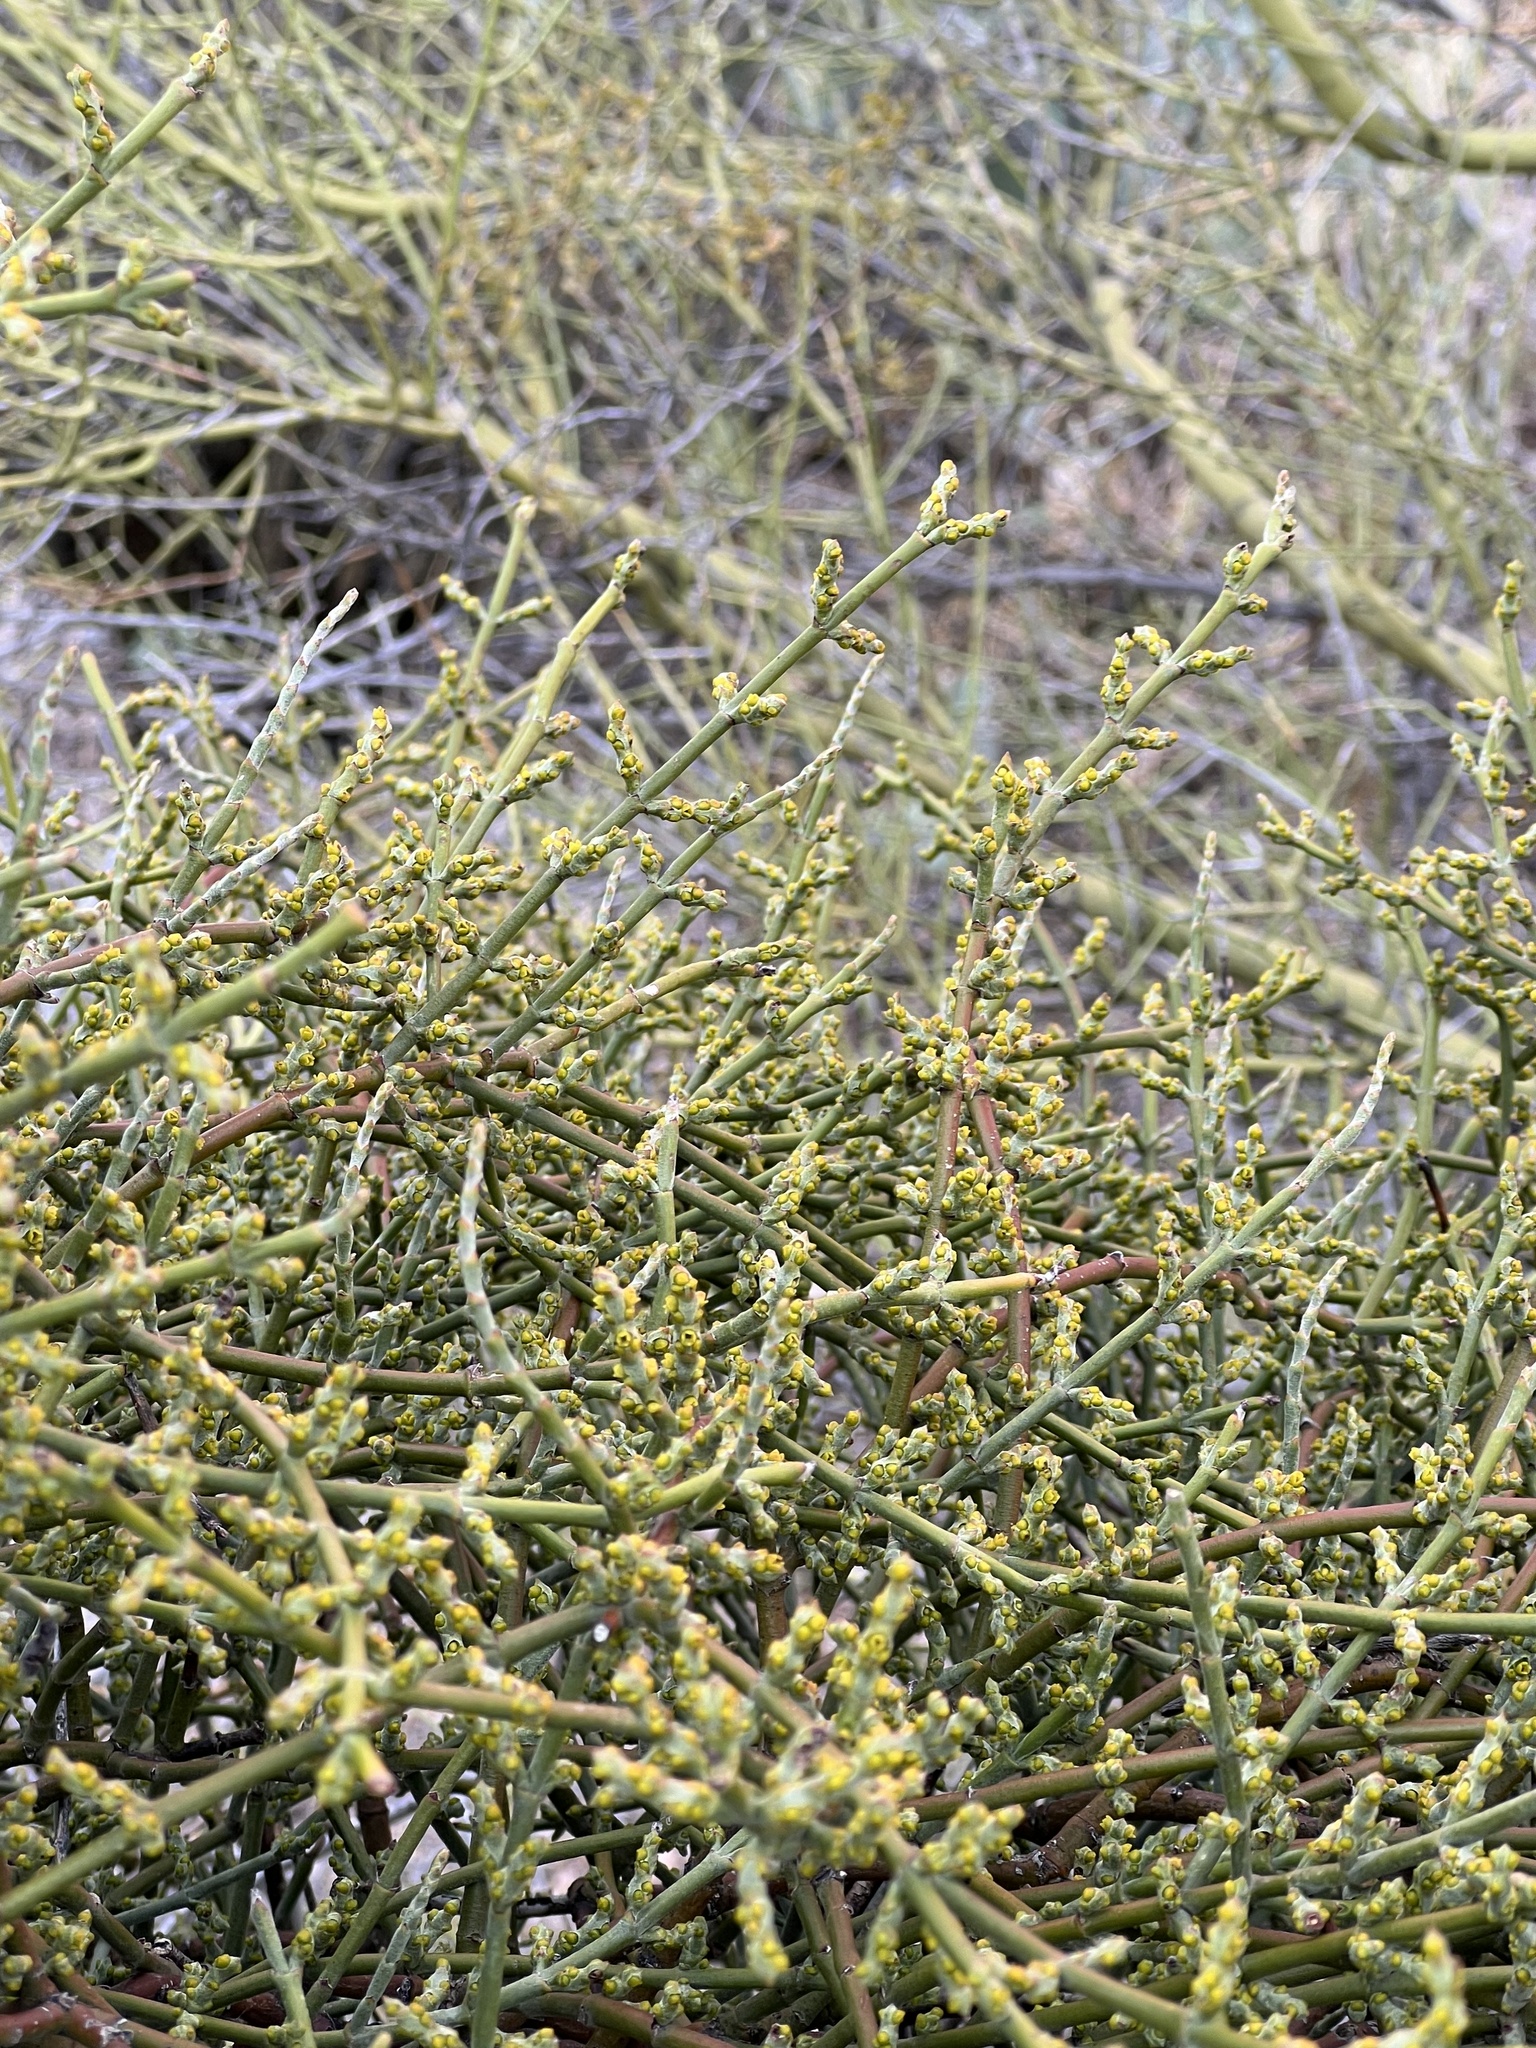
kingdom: Plantae
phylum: Tracheophyta
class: Magnoliopsida
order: Santalales
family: Viscaceae
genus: Phoradendron
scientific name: Phoradendron californicum
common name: Acacia mistletoe
